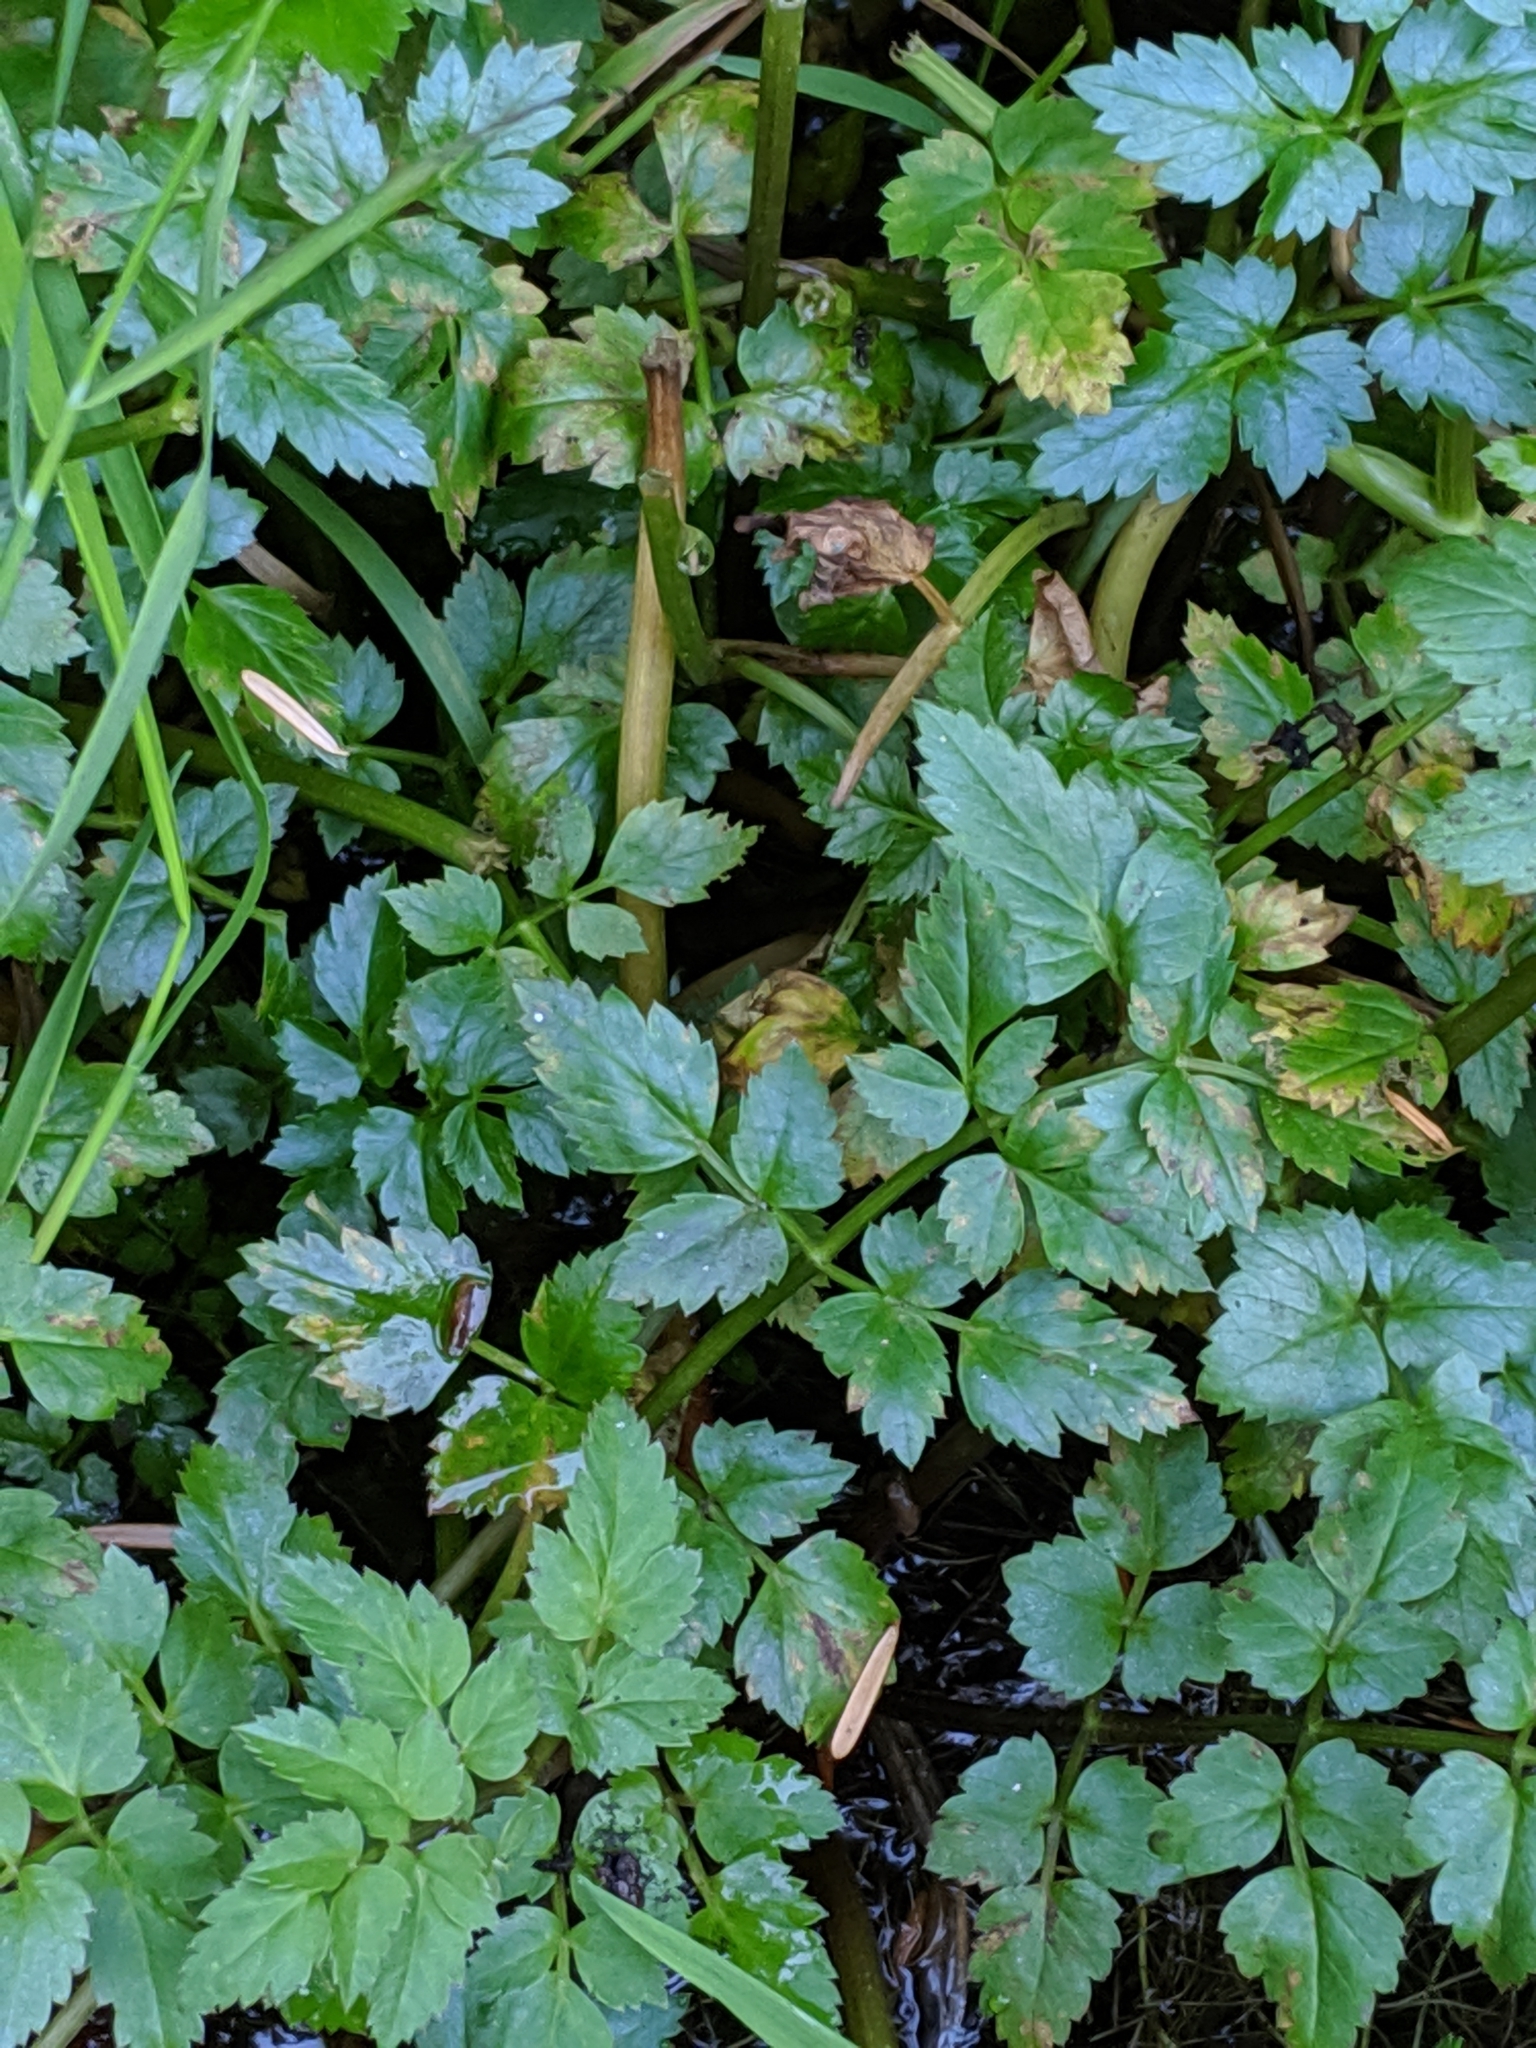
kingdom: Plantae
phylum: Tracheophyta
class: Magnoliopsida
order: Apiales
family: Apiaceae
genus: Oenanthe
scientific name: Oenanthe sarmentosa
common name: American water-parsley
